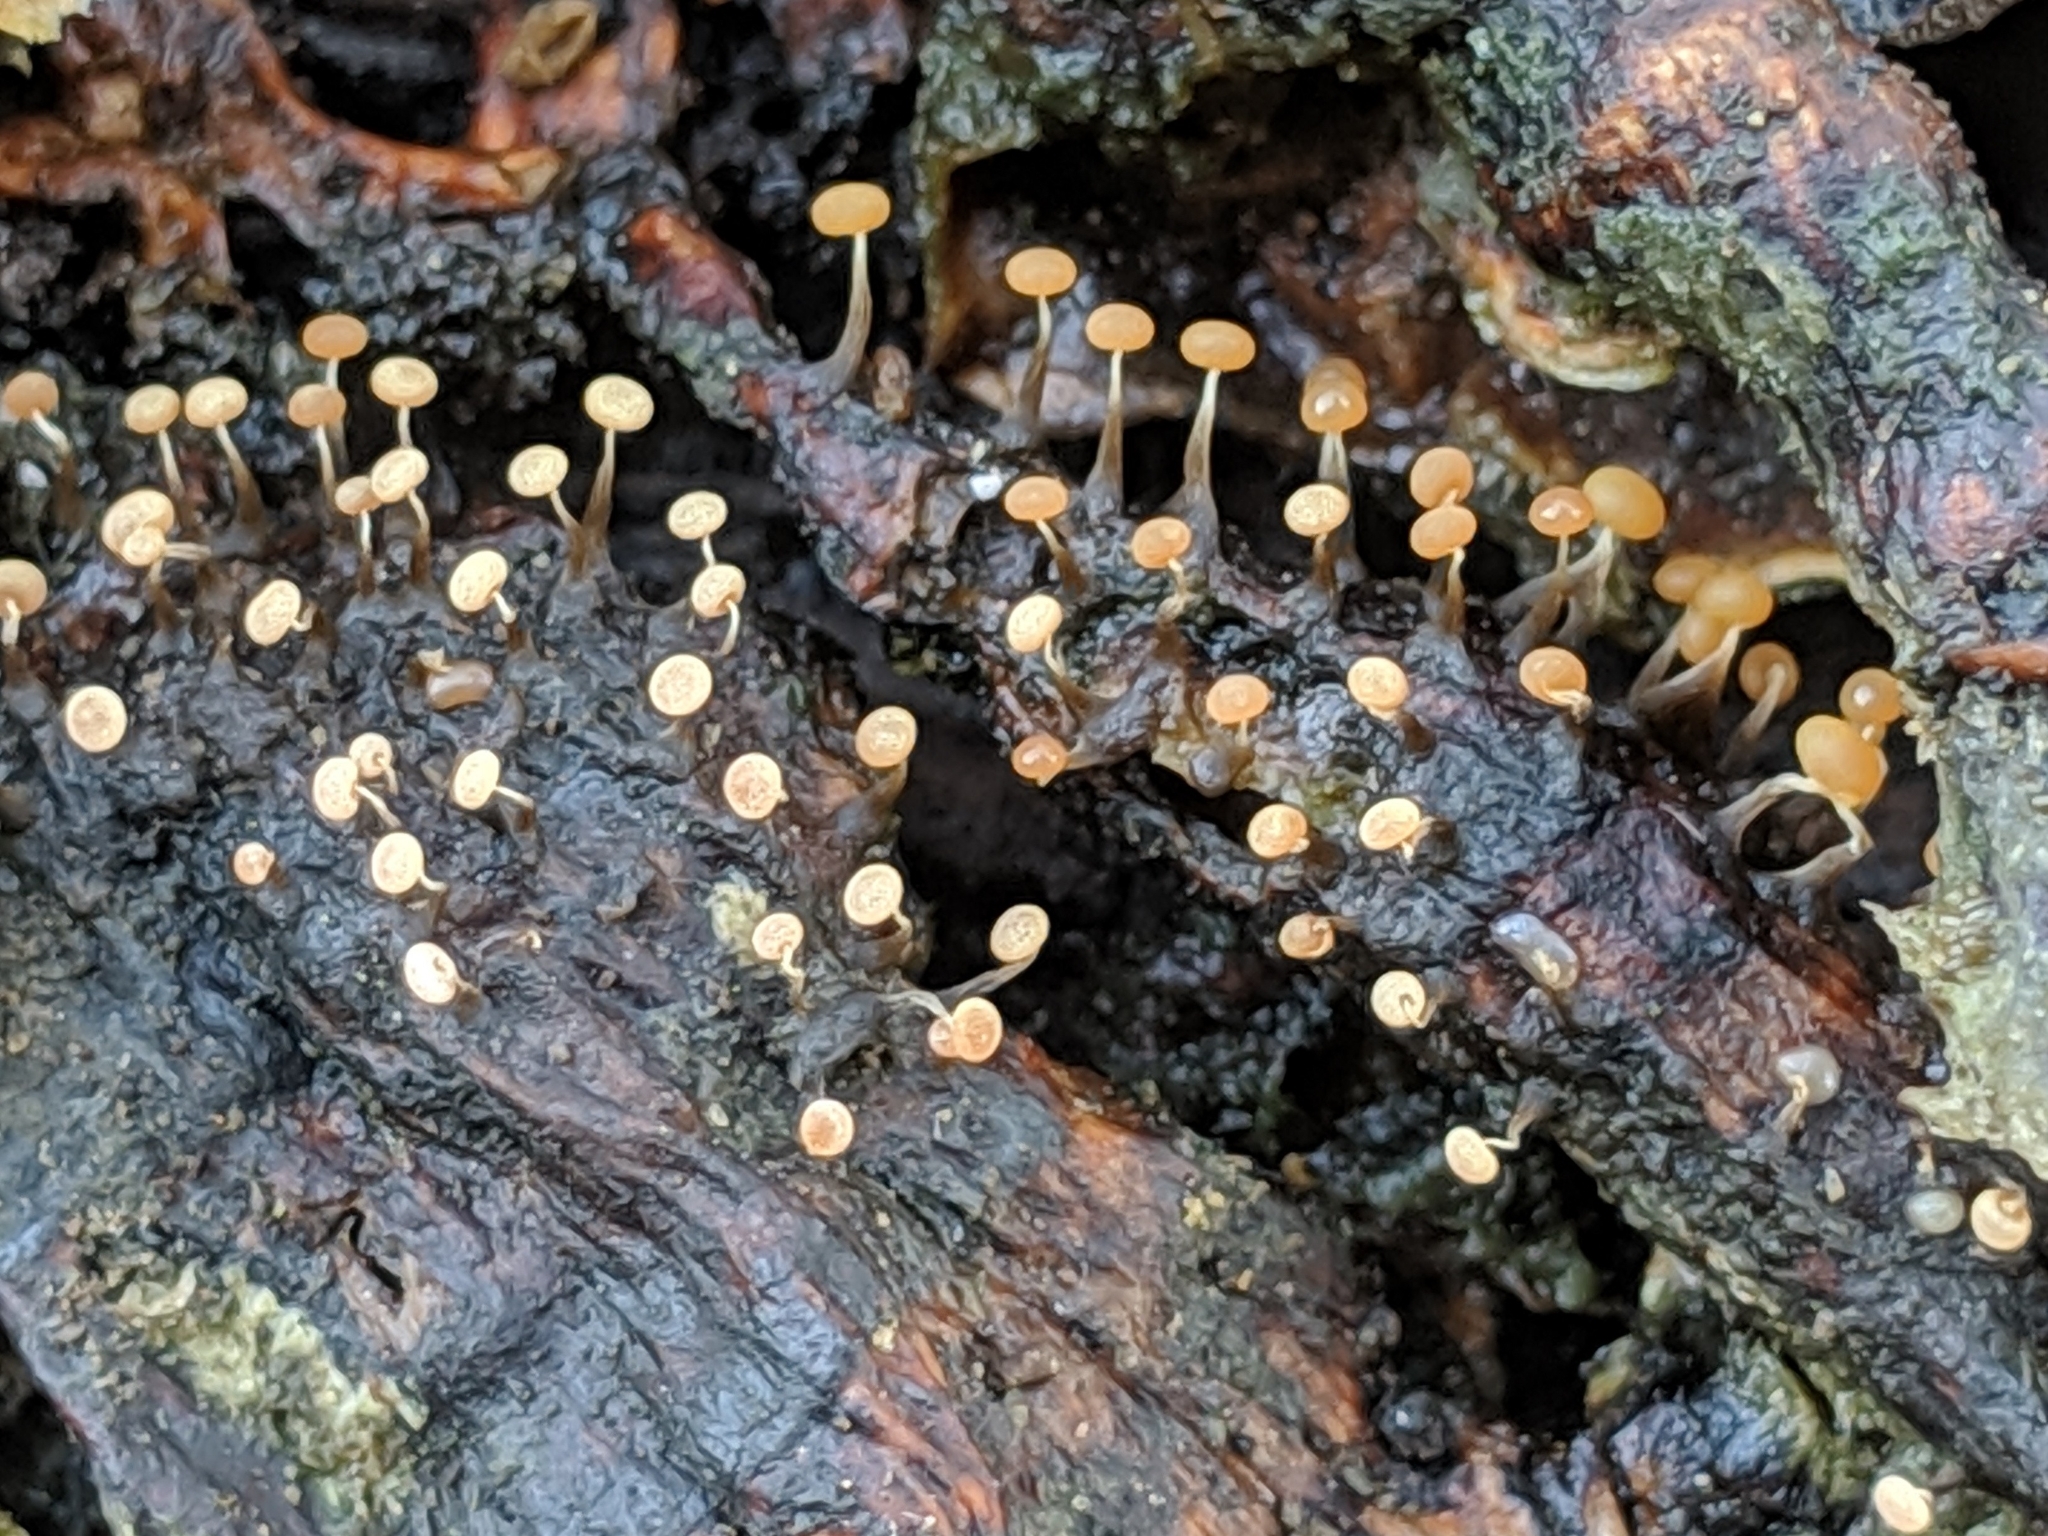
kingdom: Protozoa
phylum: Mycetozoa
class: Myxomycetes
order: Physarales
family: Physaraceae
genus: Physarum
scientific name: Physarum album
